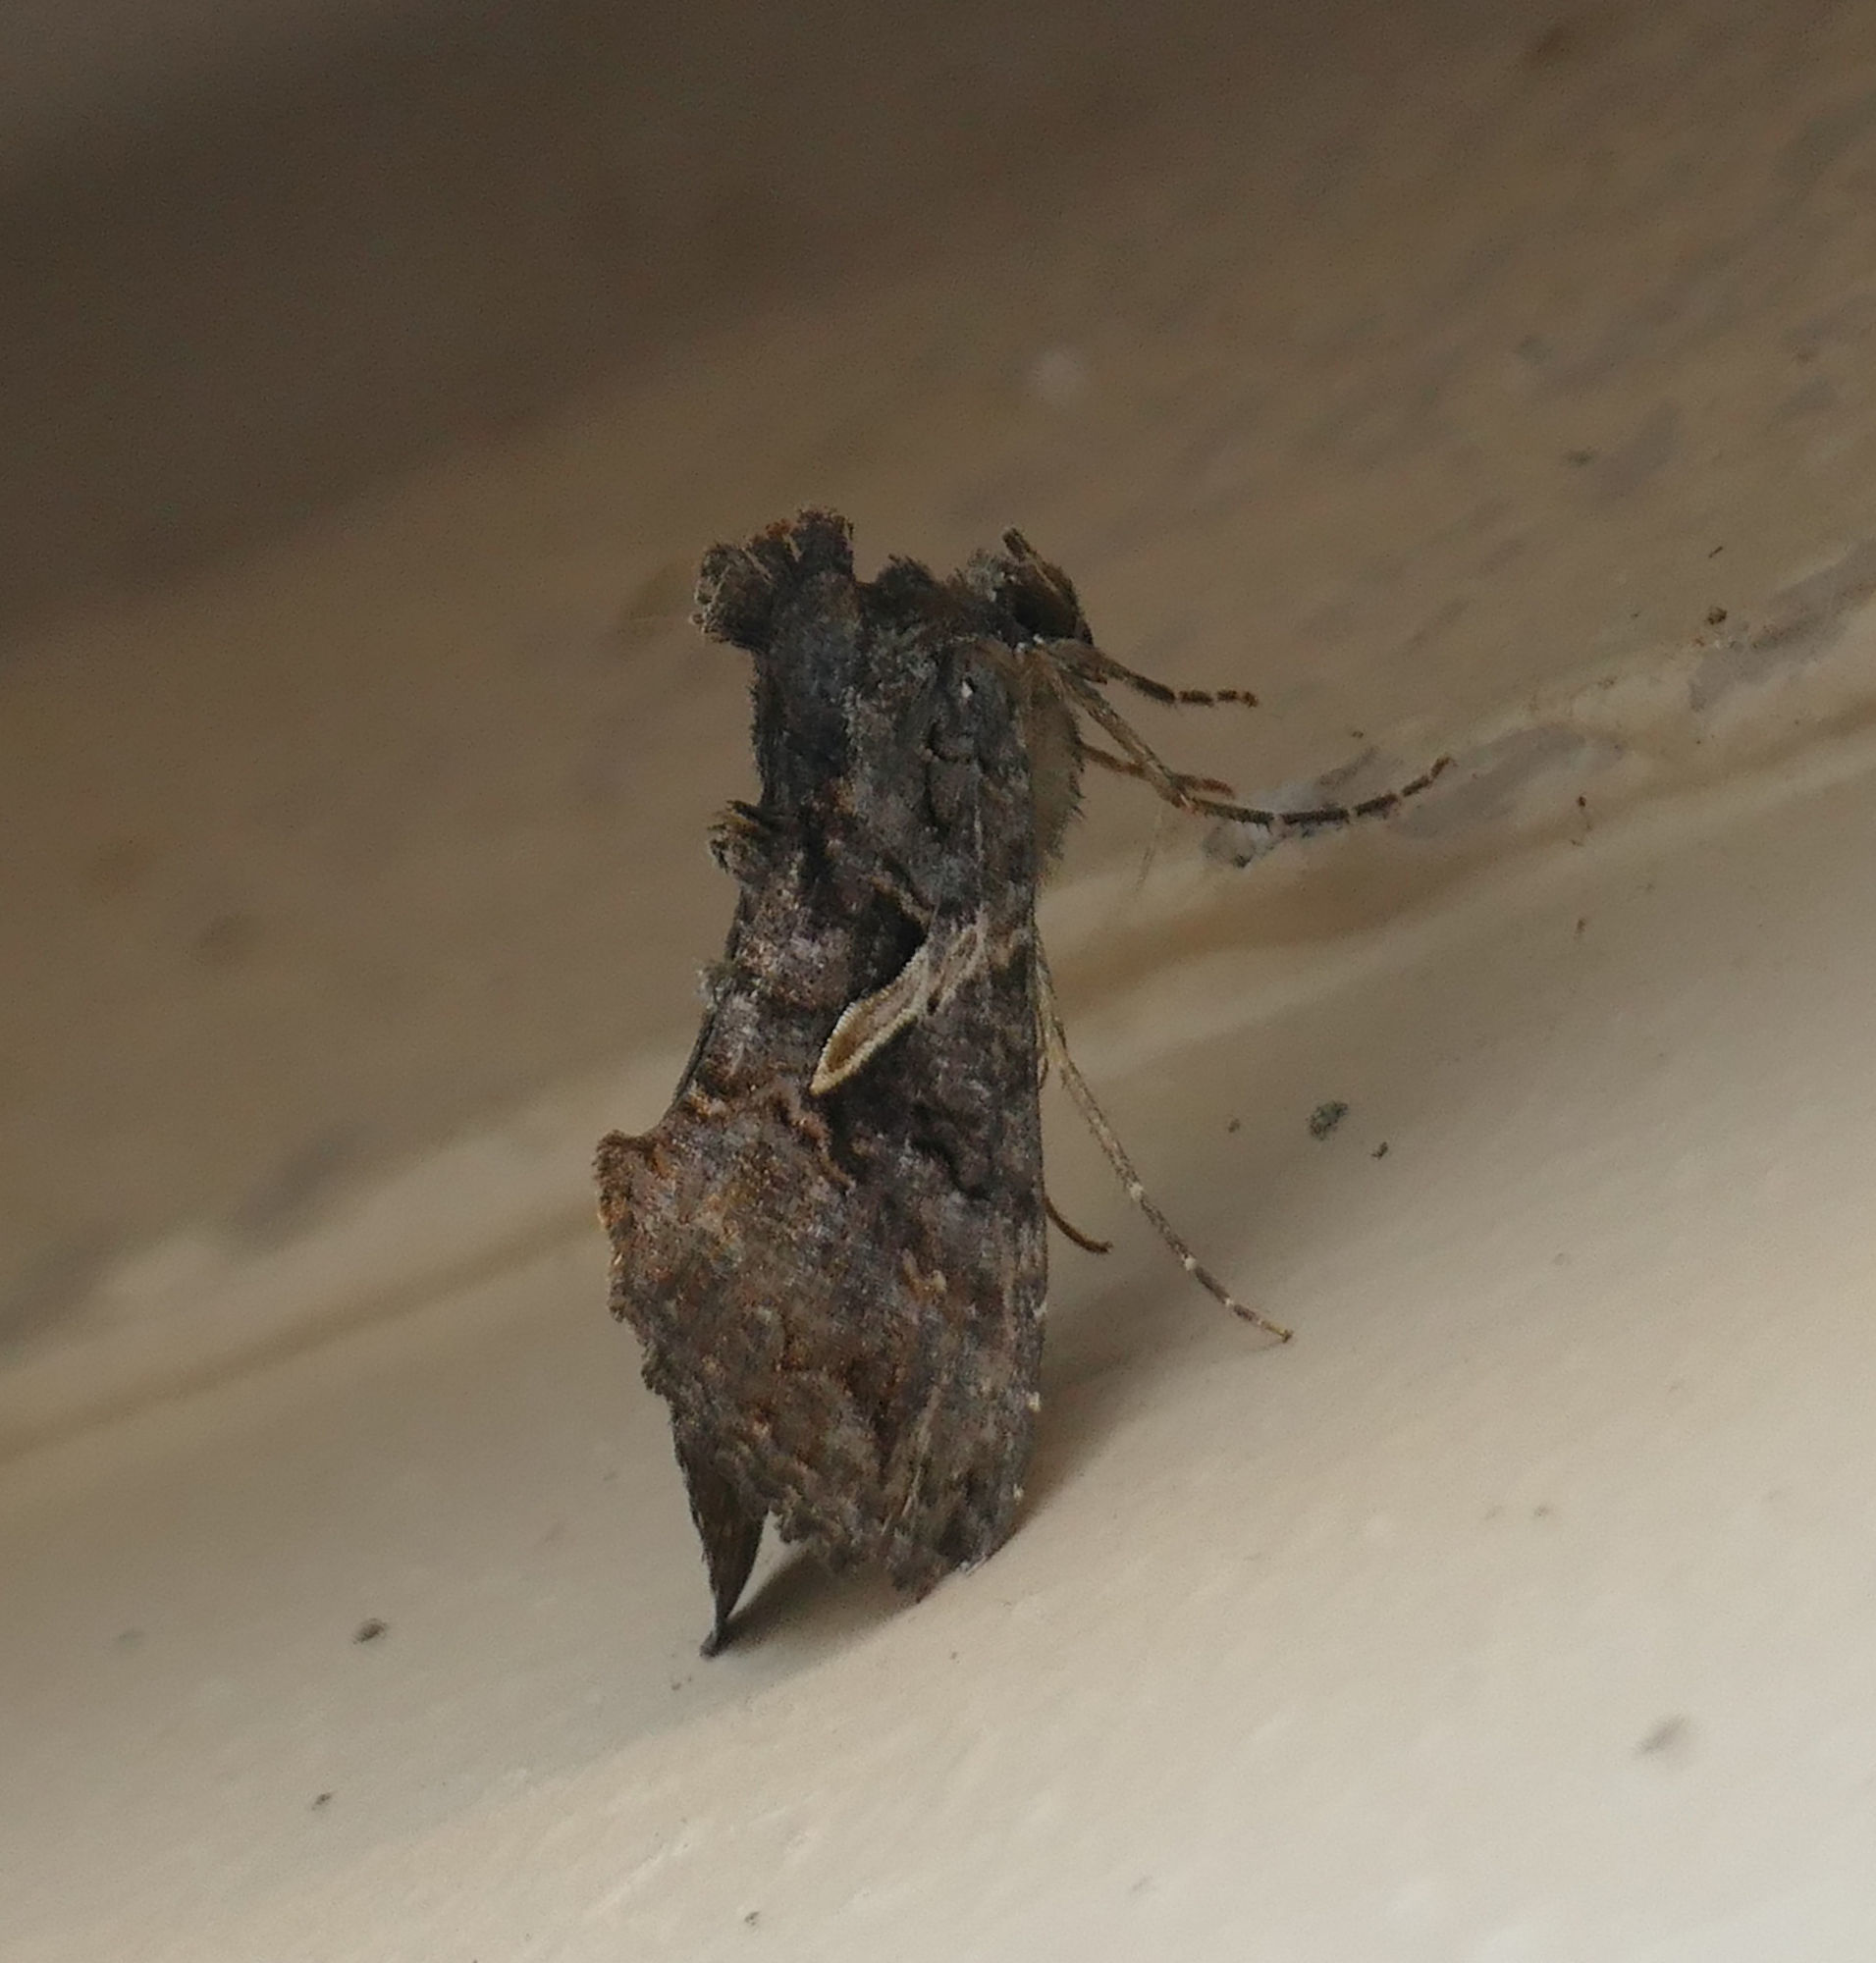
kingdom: Animalia
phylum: Arthropoda
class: Insecta
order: Lepidoptera
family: Noctuidae
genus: Ctenoplusia
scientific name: Ctenoplusia oxygramma
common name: Sharp-stigma looper moth
